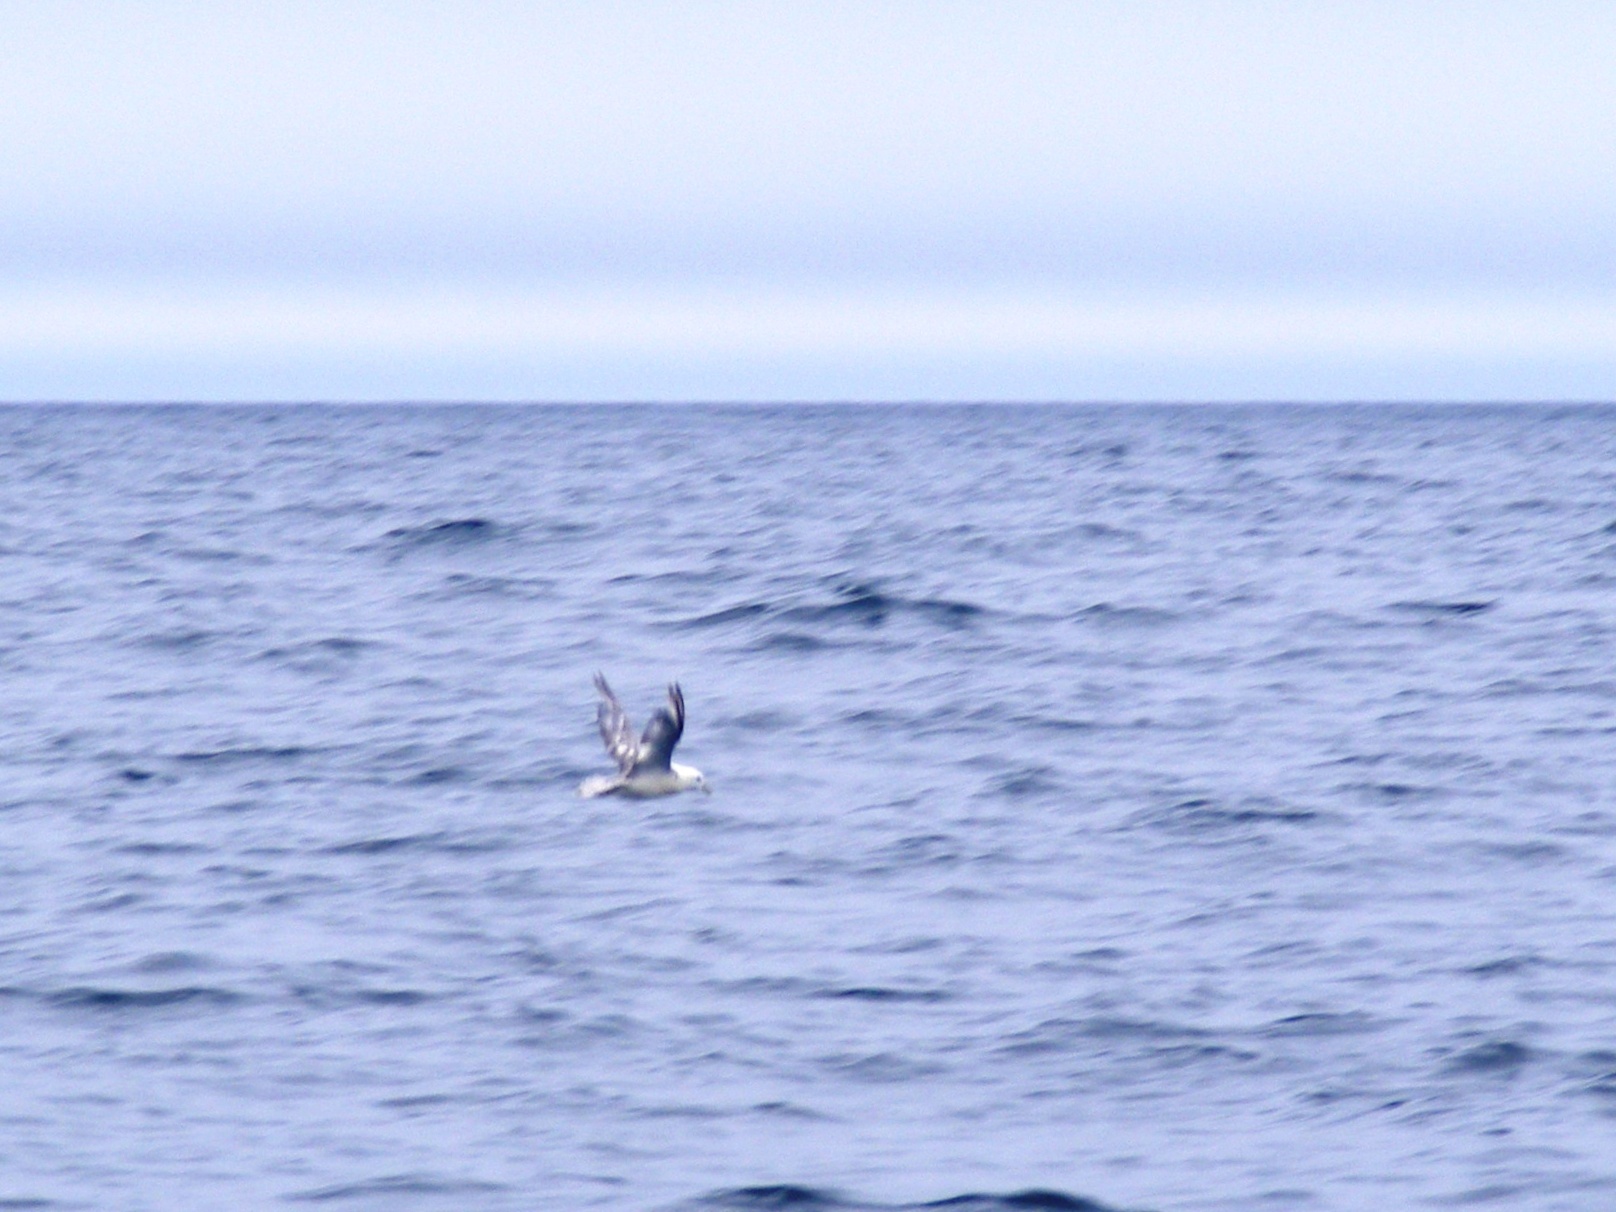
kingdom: Animalia
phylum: Chordata
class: Aves
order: Procellariiformes
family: Procellariidae
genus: Fulmarus
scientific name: Fulmarus glacialis
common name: Northern fulmar
